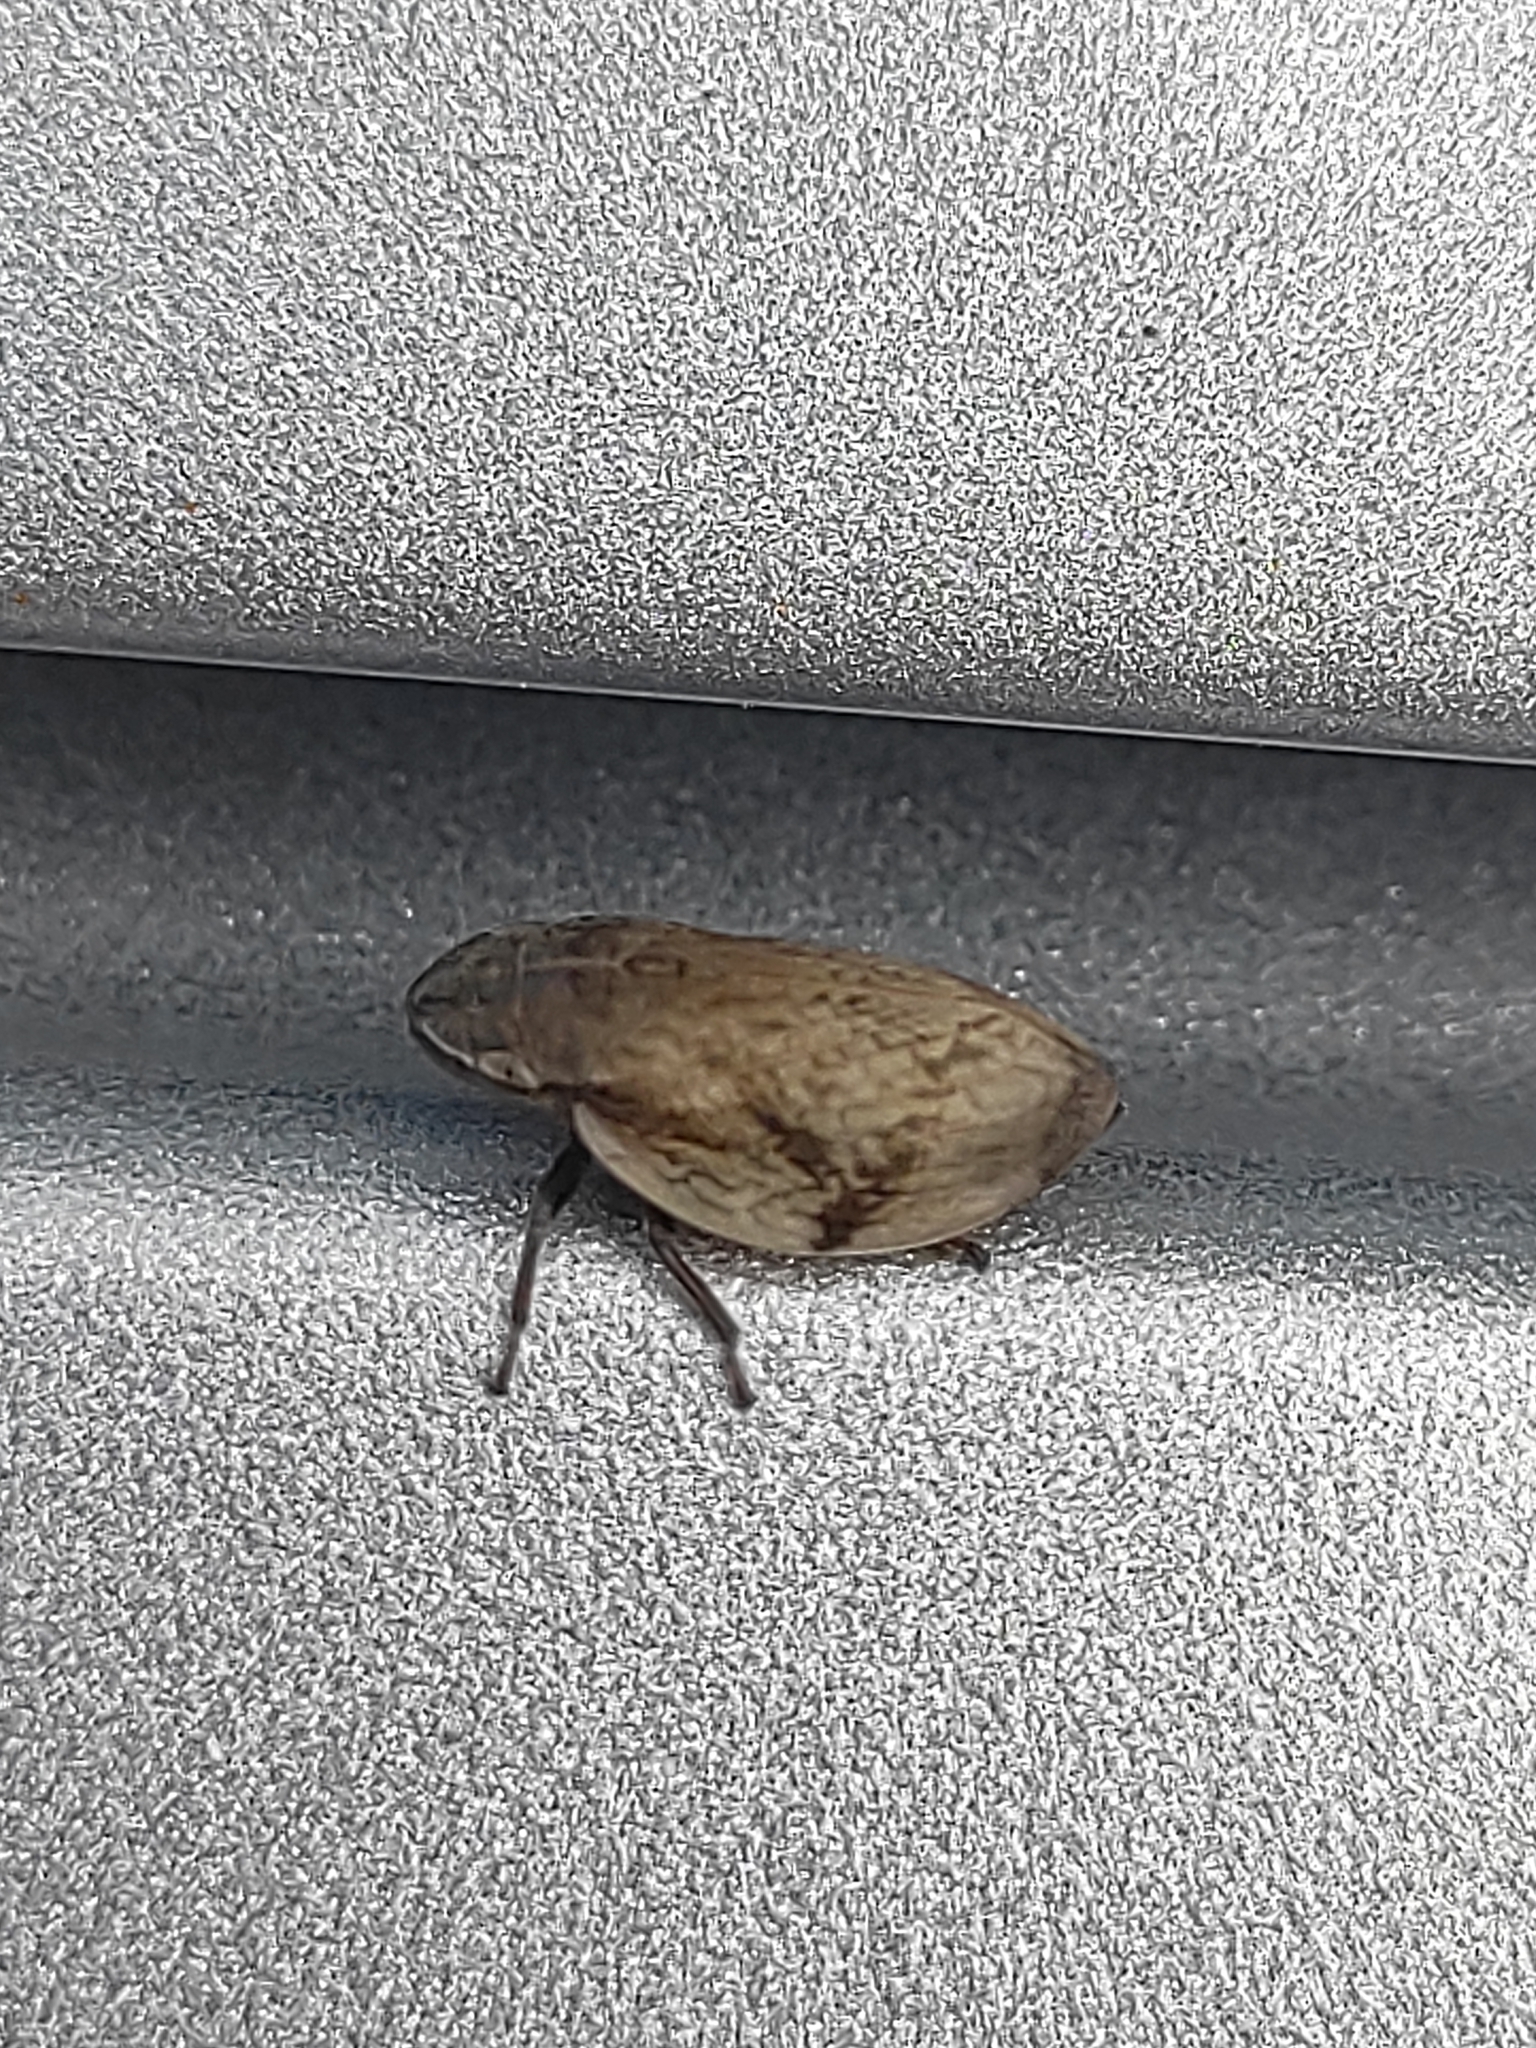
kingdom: Animalia
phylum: Arthropoda
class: Insecta
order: Hemiptera
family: Aphrophoridae
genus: Lepyronia
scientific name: Lepyronia coleoptrata
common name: Leafhopper
